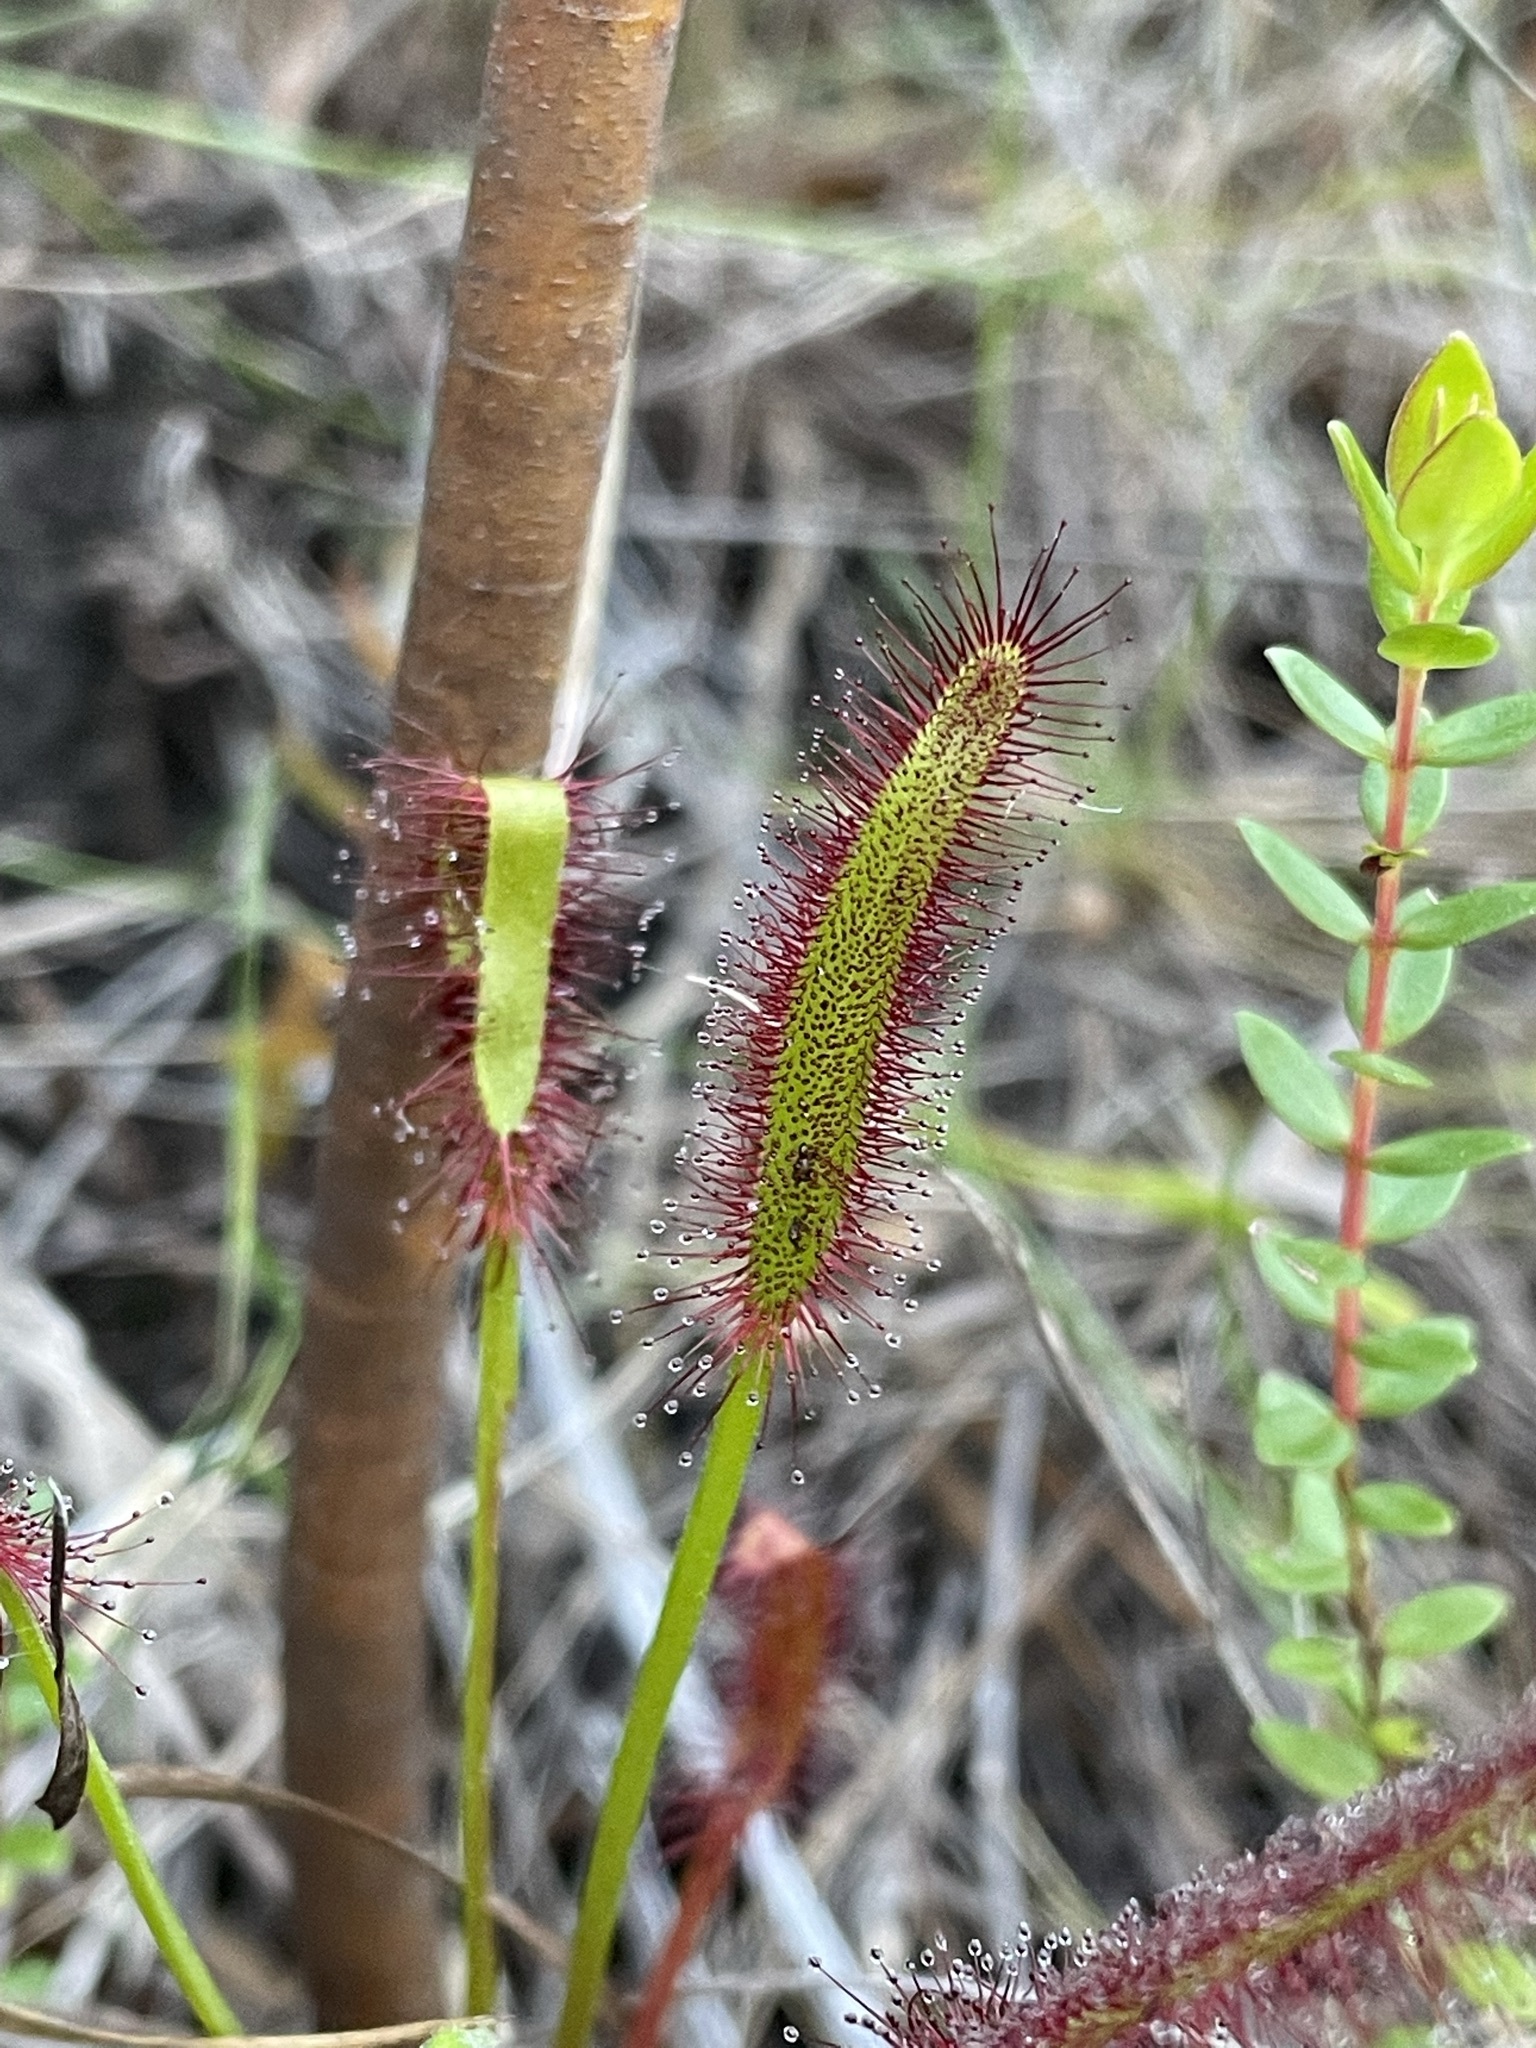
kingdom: Plantae
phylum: Tracheophyta
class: Magnoliopsida
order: Caryophyllales
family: Droseraceae
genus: Drosera
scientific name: Drosera capensis
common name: Cape sundew
